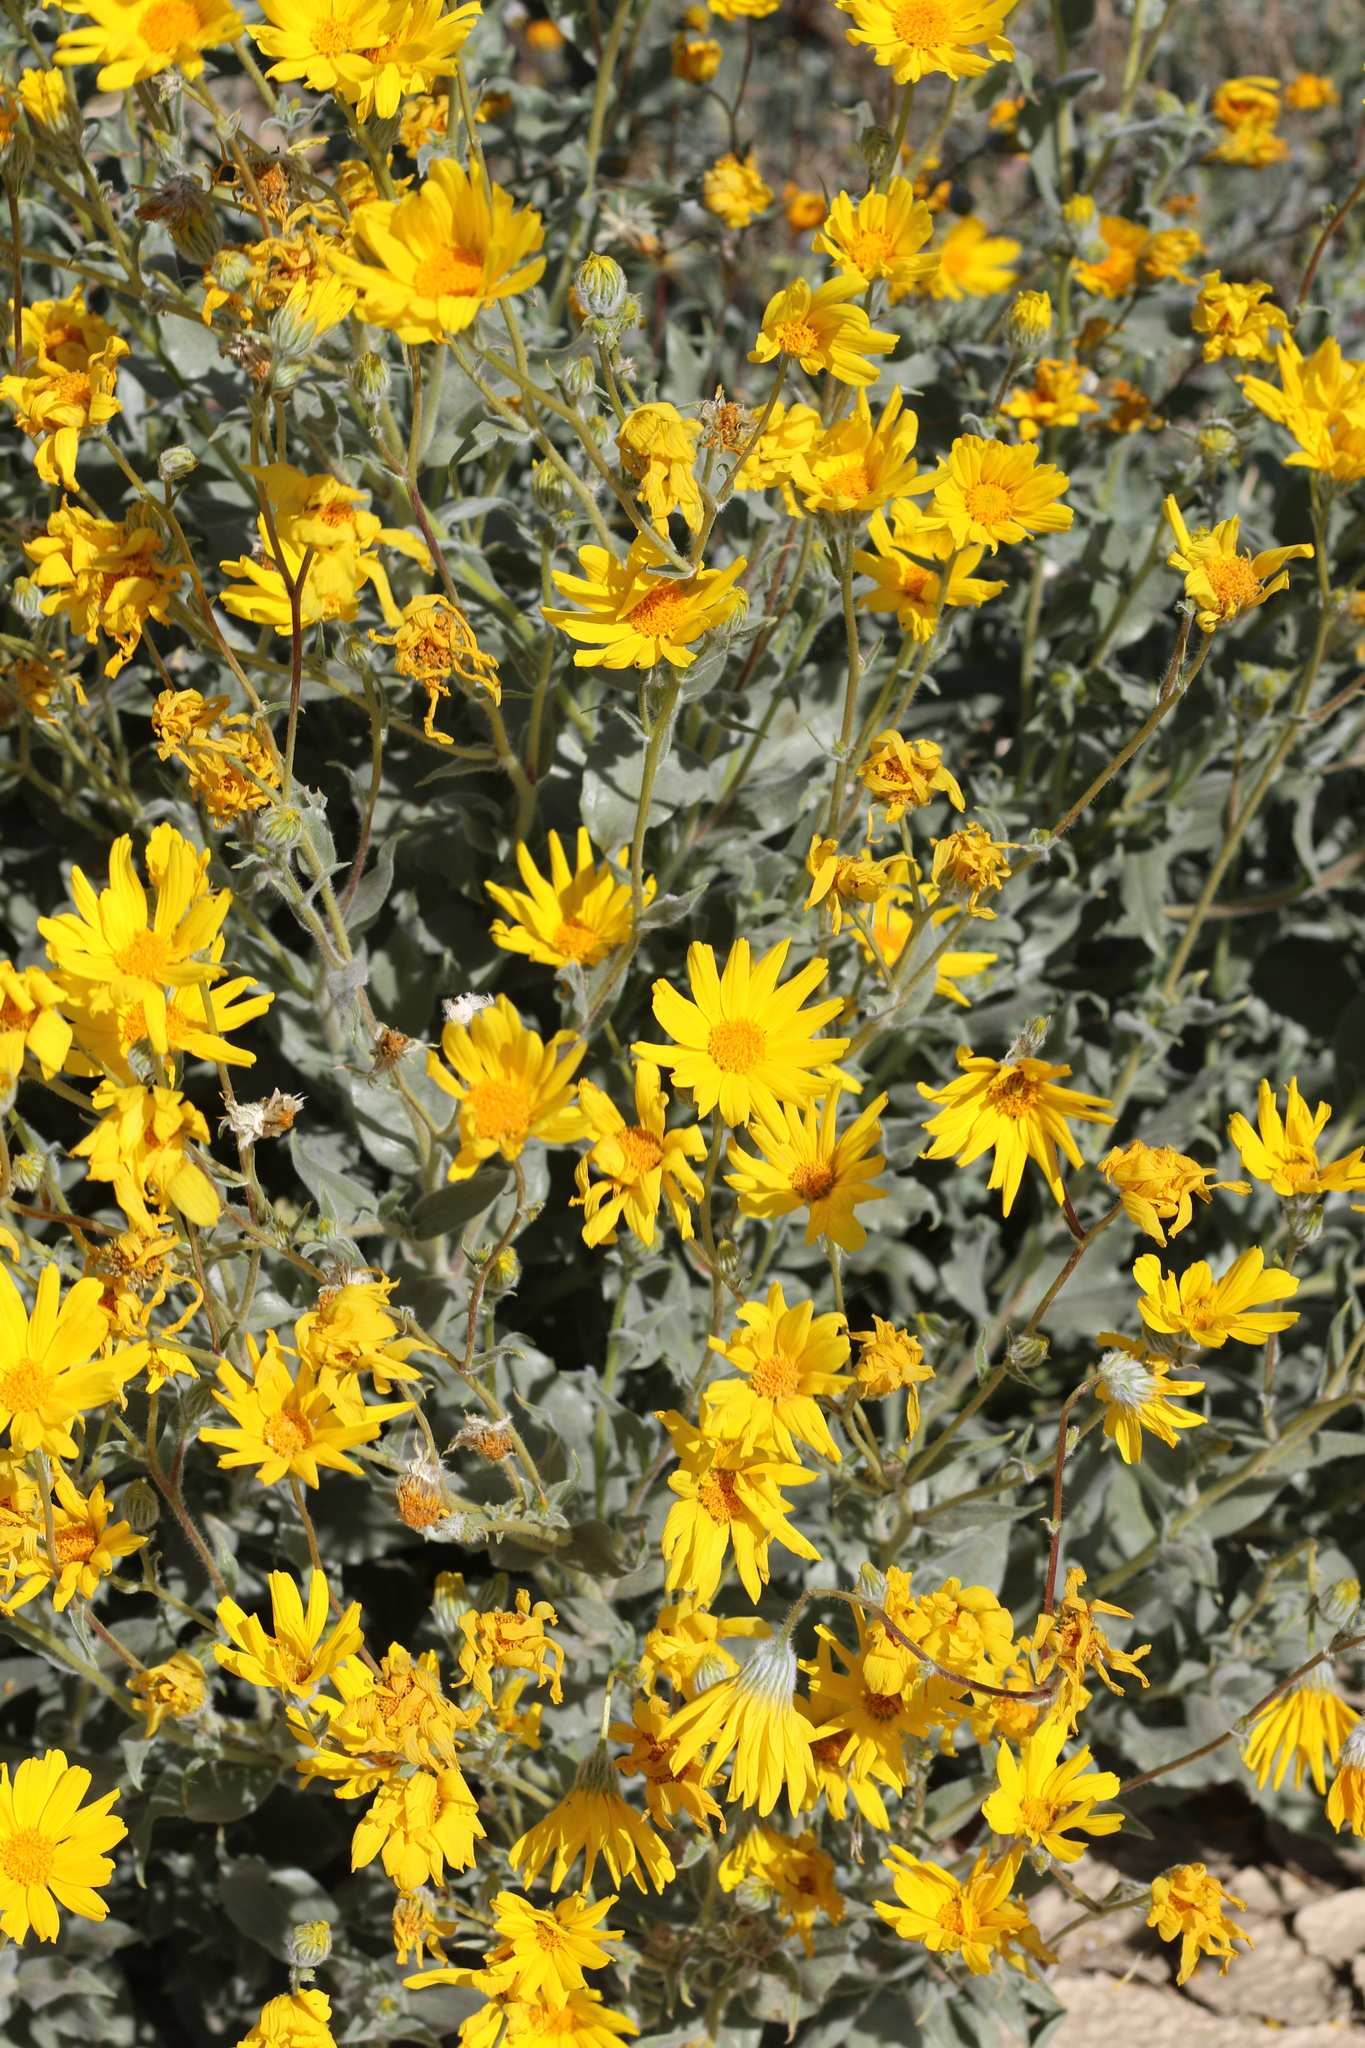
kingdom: Plantae
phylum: Tracheophyta
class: Magnoliopsida
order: Asterales
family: Asteraceae
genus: Geraea
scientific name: Geraea canescens
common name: Desert-gold
